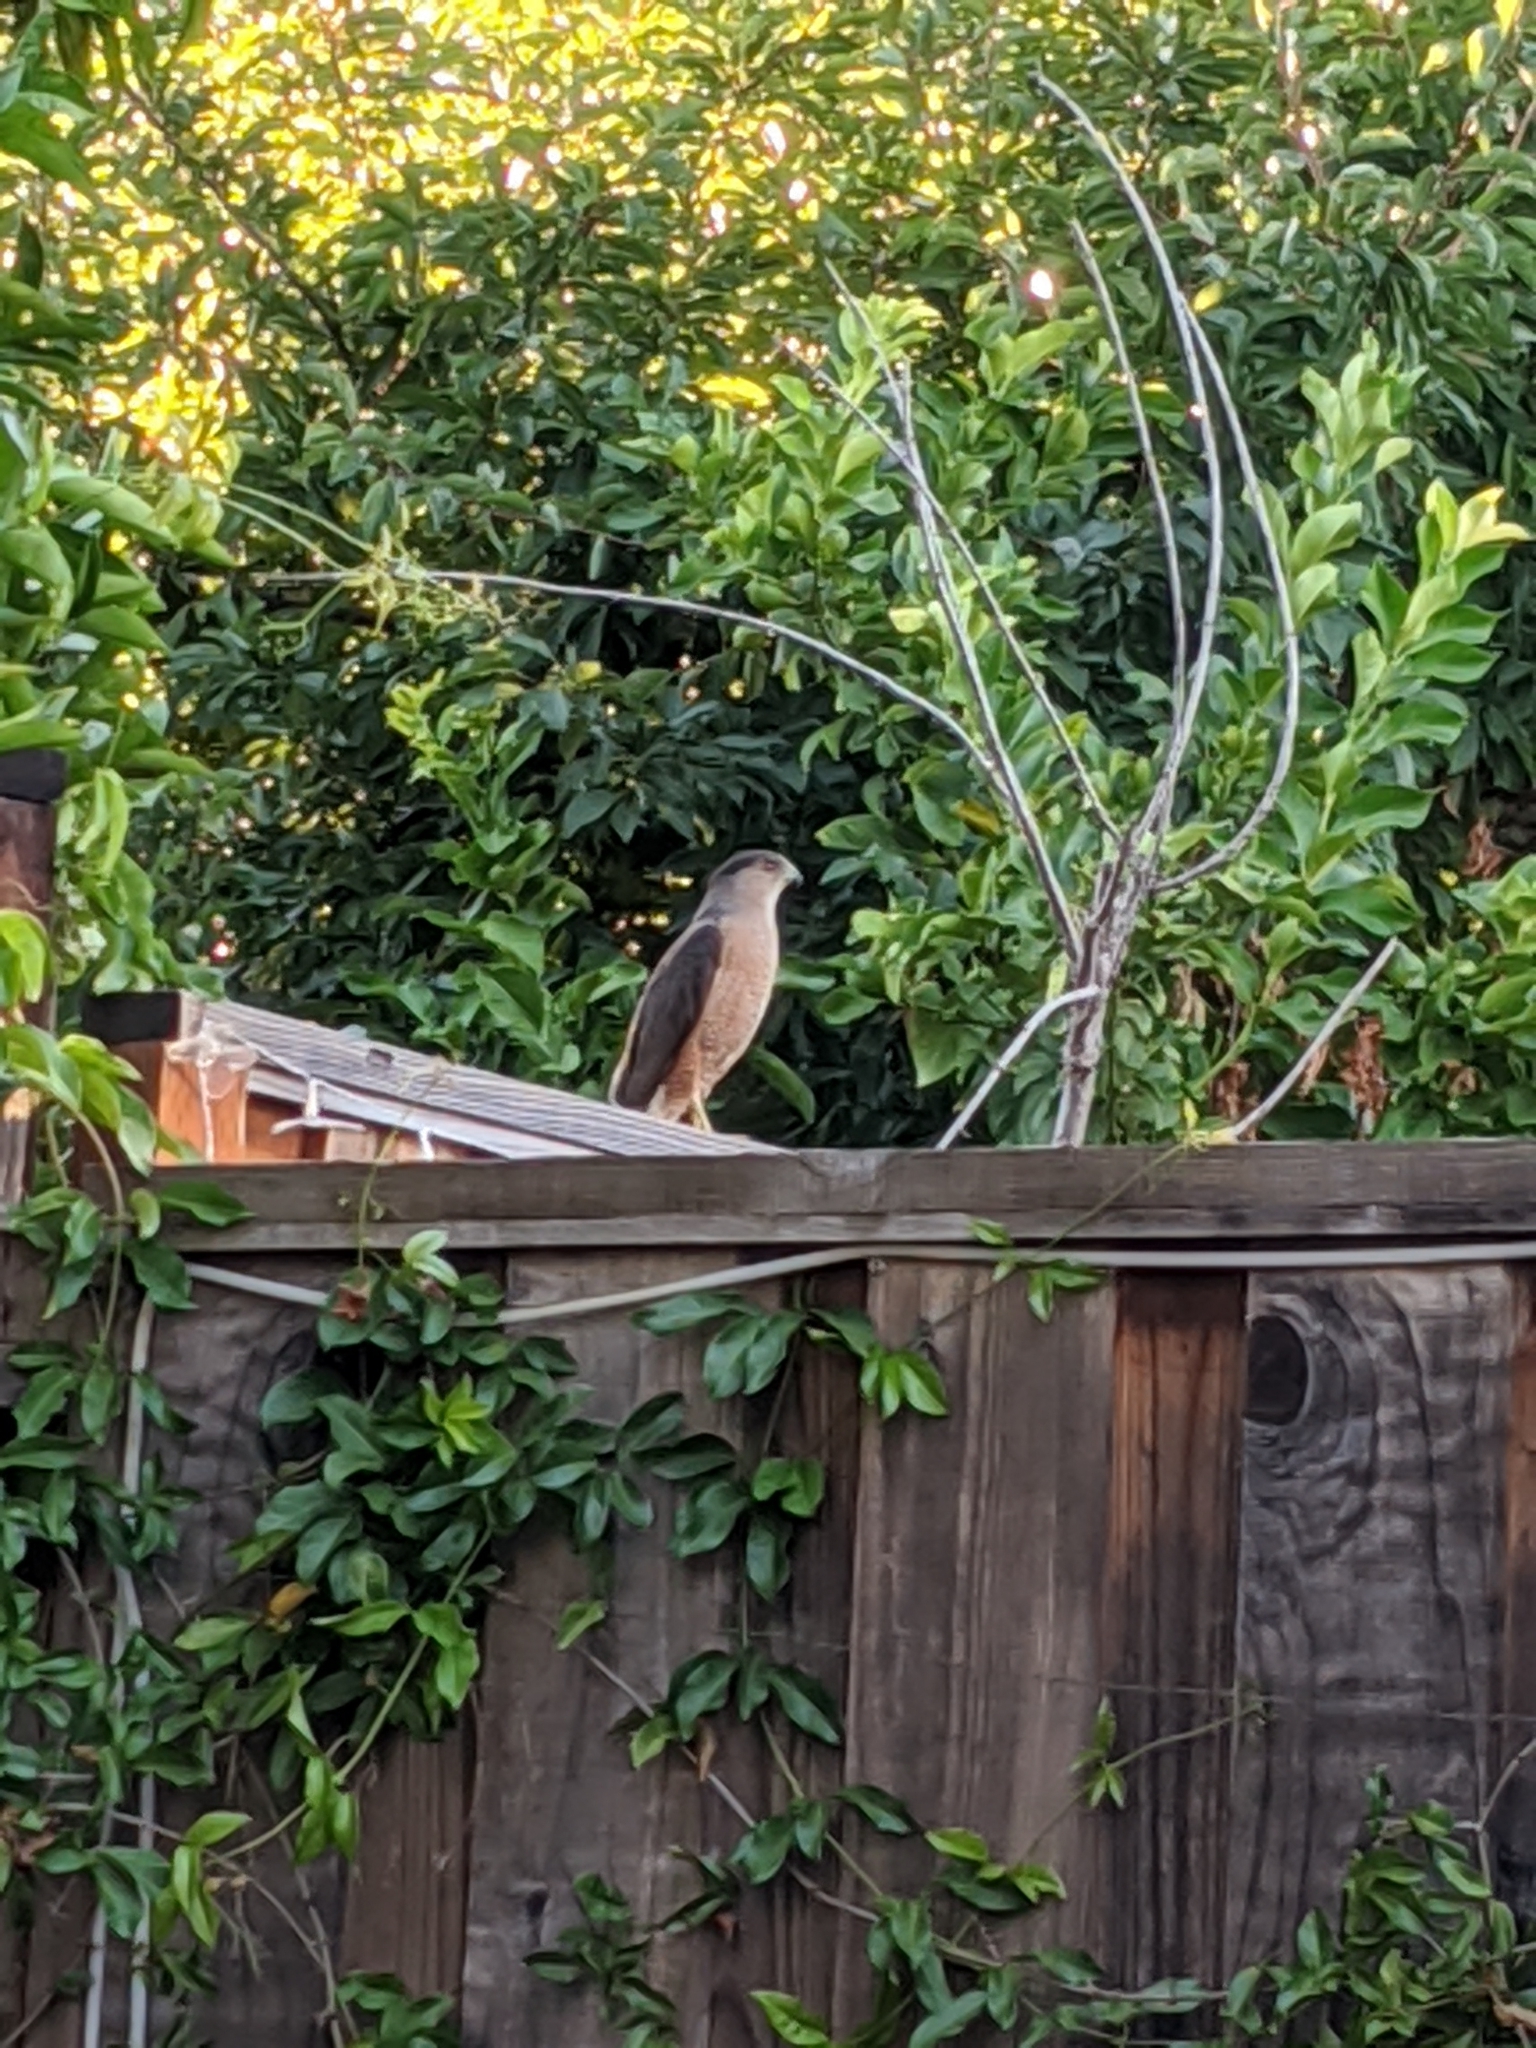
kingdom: Animalia
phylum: Chordata
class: Aves
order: Accipitriformes
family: Accipitridae
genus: Accipiter
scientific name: Accipiter cooperii
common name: Cooper's hawk
